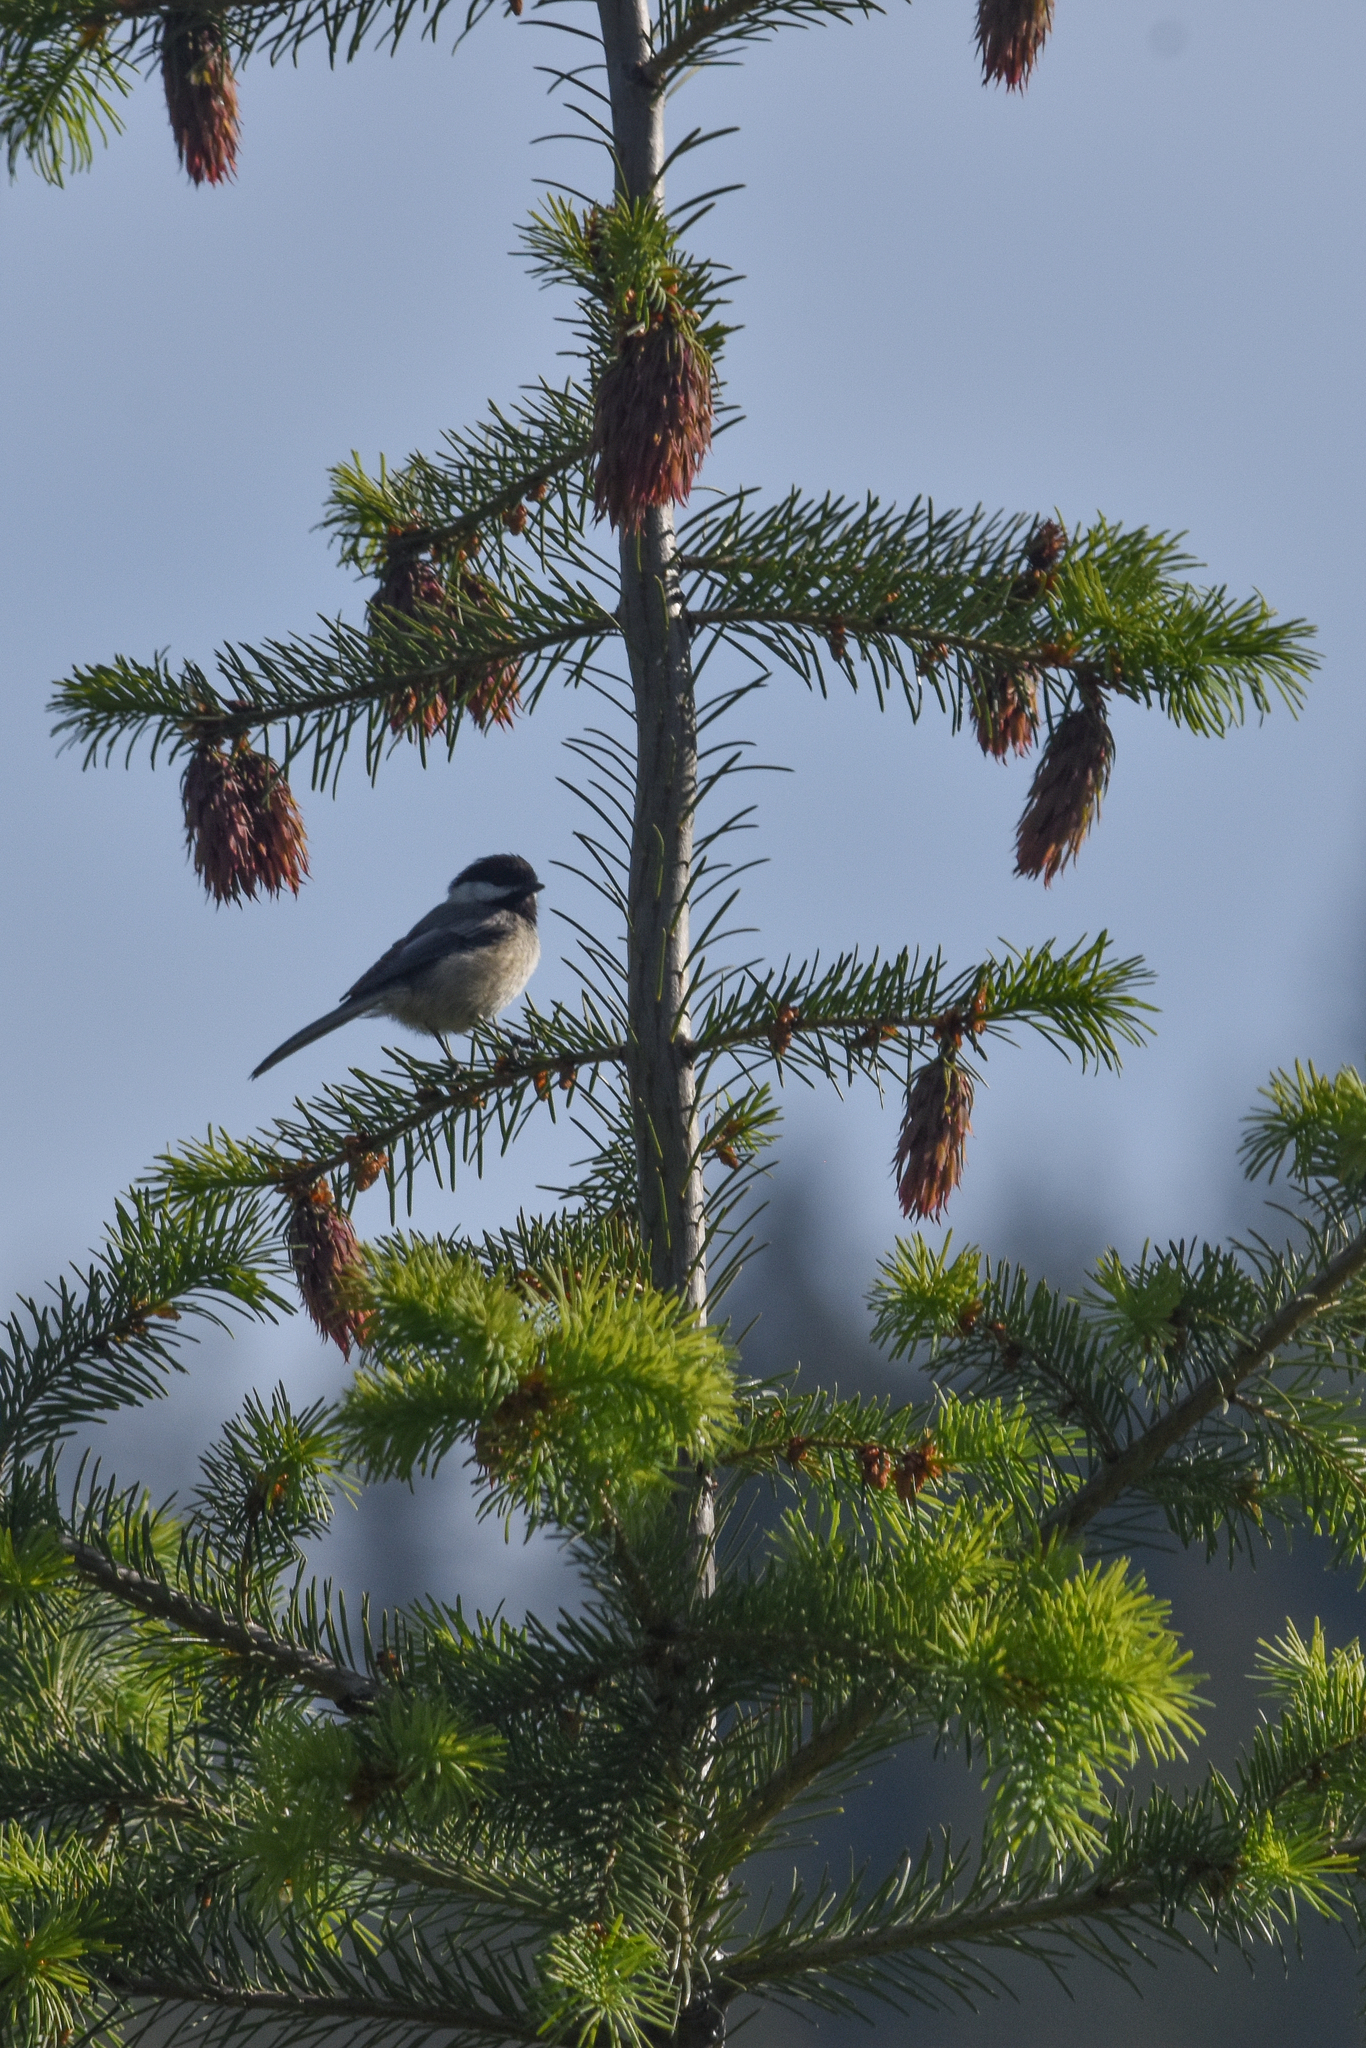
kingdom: Animalia
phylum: Chordata
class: Aves
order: Passeriformes
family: Paridae
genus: Poecile
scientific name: Poecile atricapillus
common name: Black-capped chickadee
